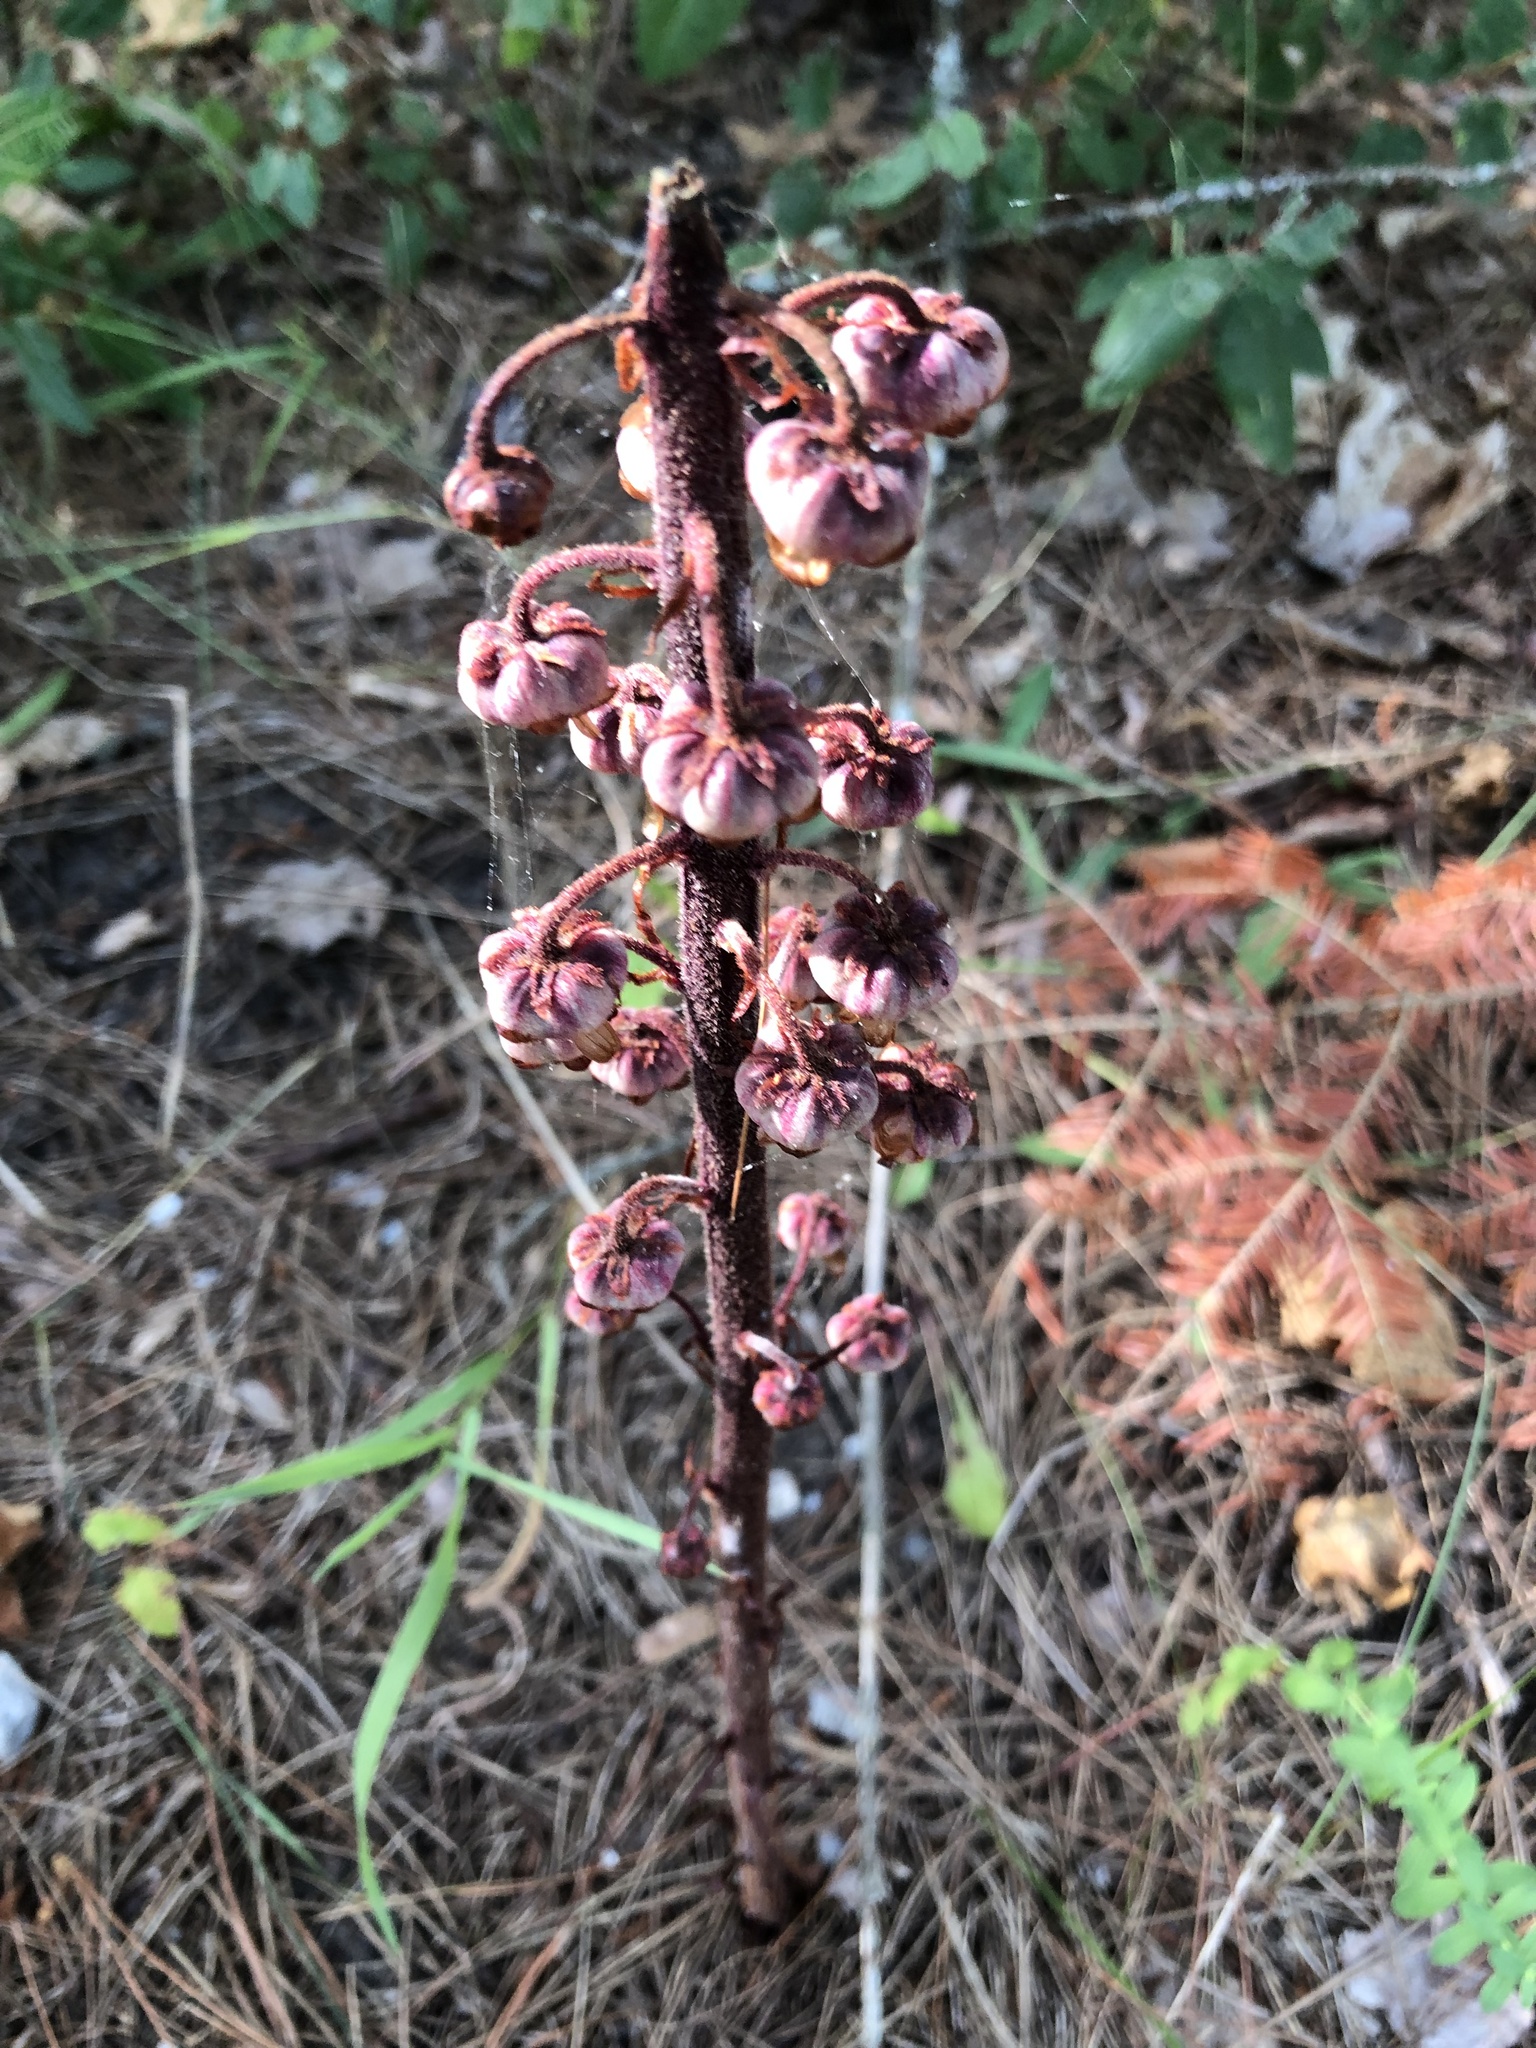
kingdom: Plantae
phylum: Tracheophyta
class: Magnoliopsida
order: Ericales
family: Ericaceae
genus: Pterospora
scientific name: Pterospora andromedea
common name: Giant bird's-nest
